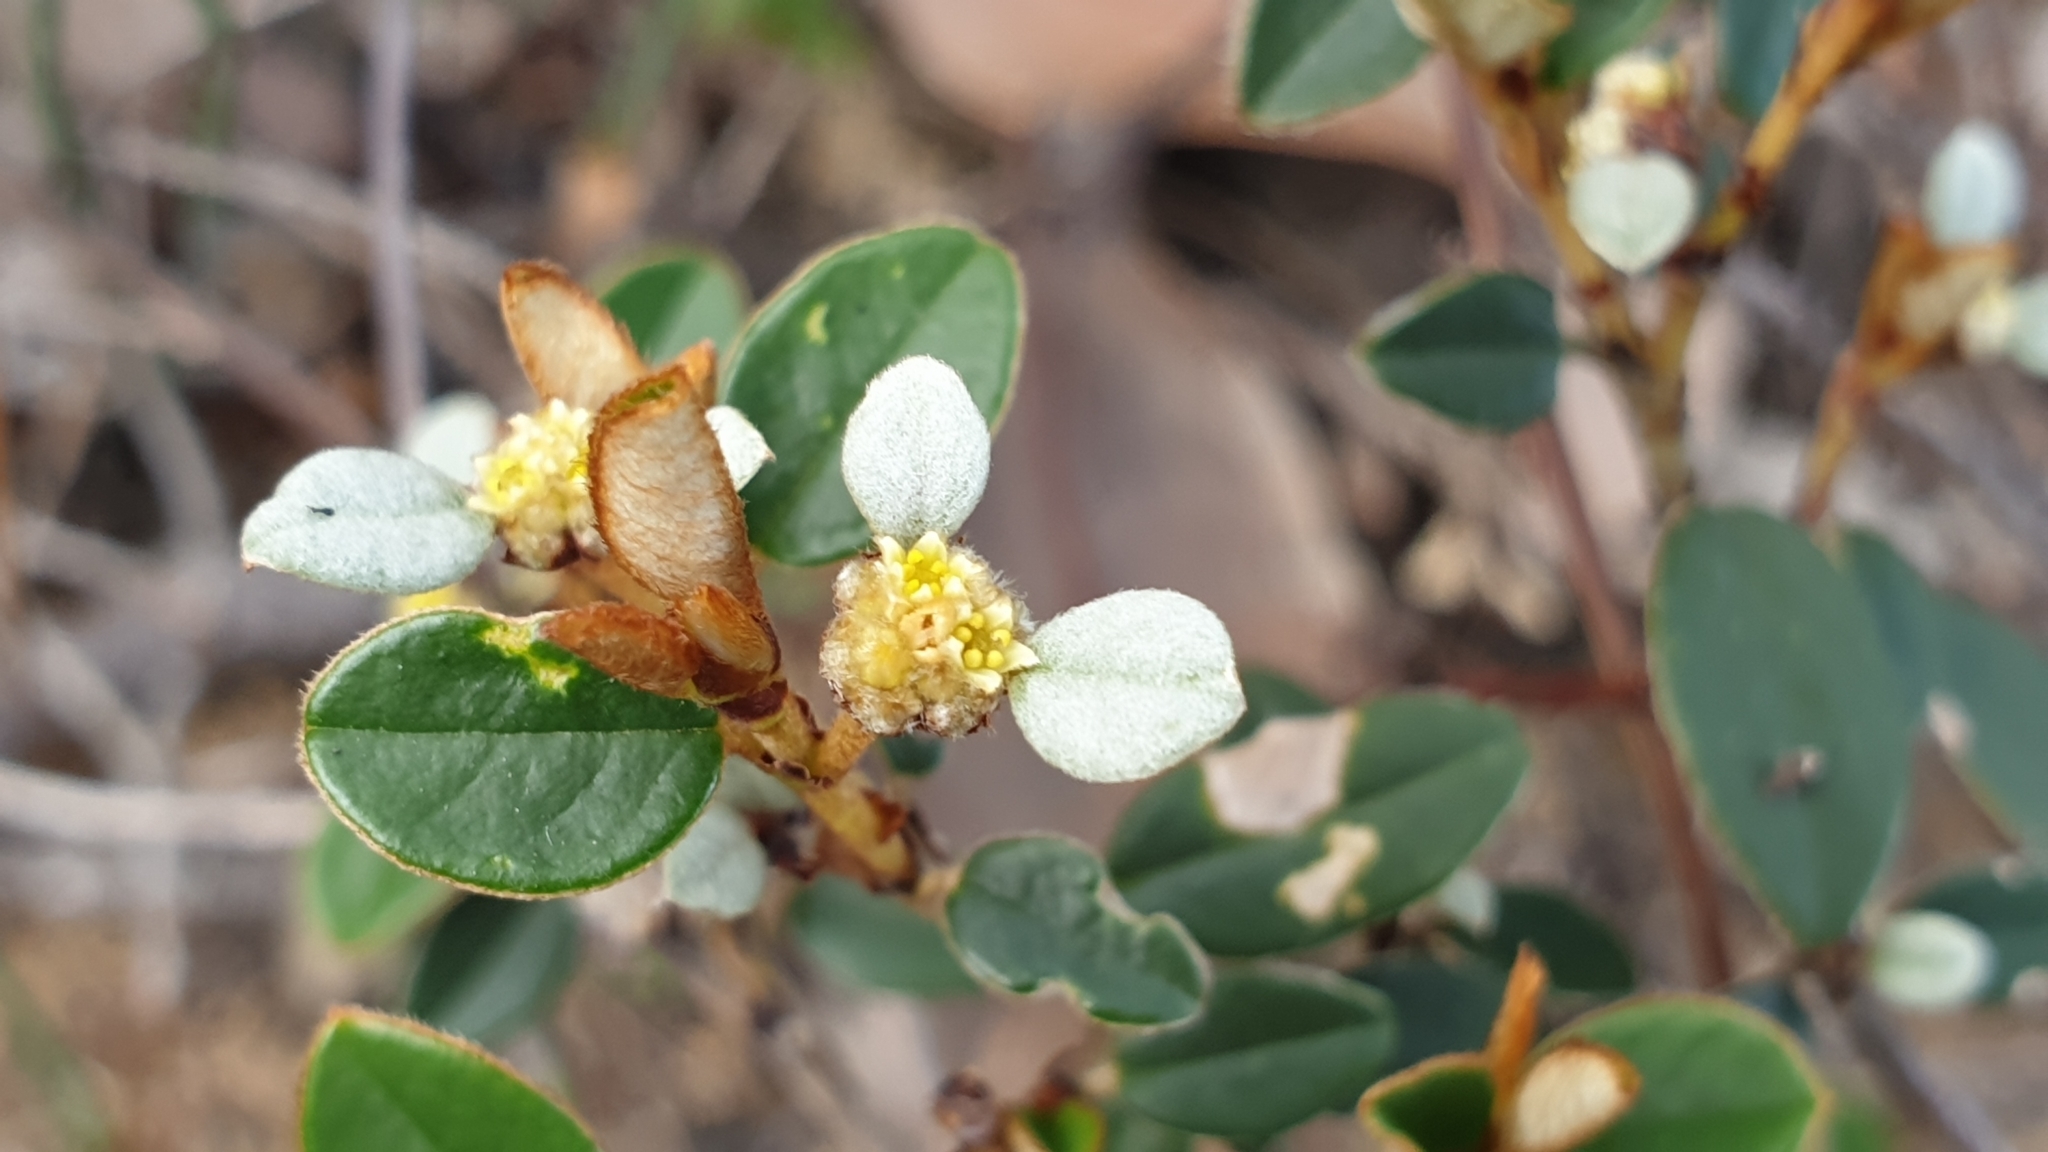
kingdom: Plantae
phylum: Tracheophyta
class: Magnoliopsida
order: Rosales
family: Rhamnaceae
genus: Spyridium
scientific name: Spyridium thymifolium
